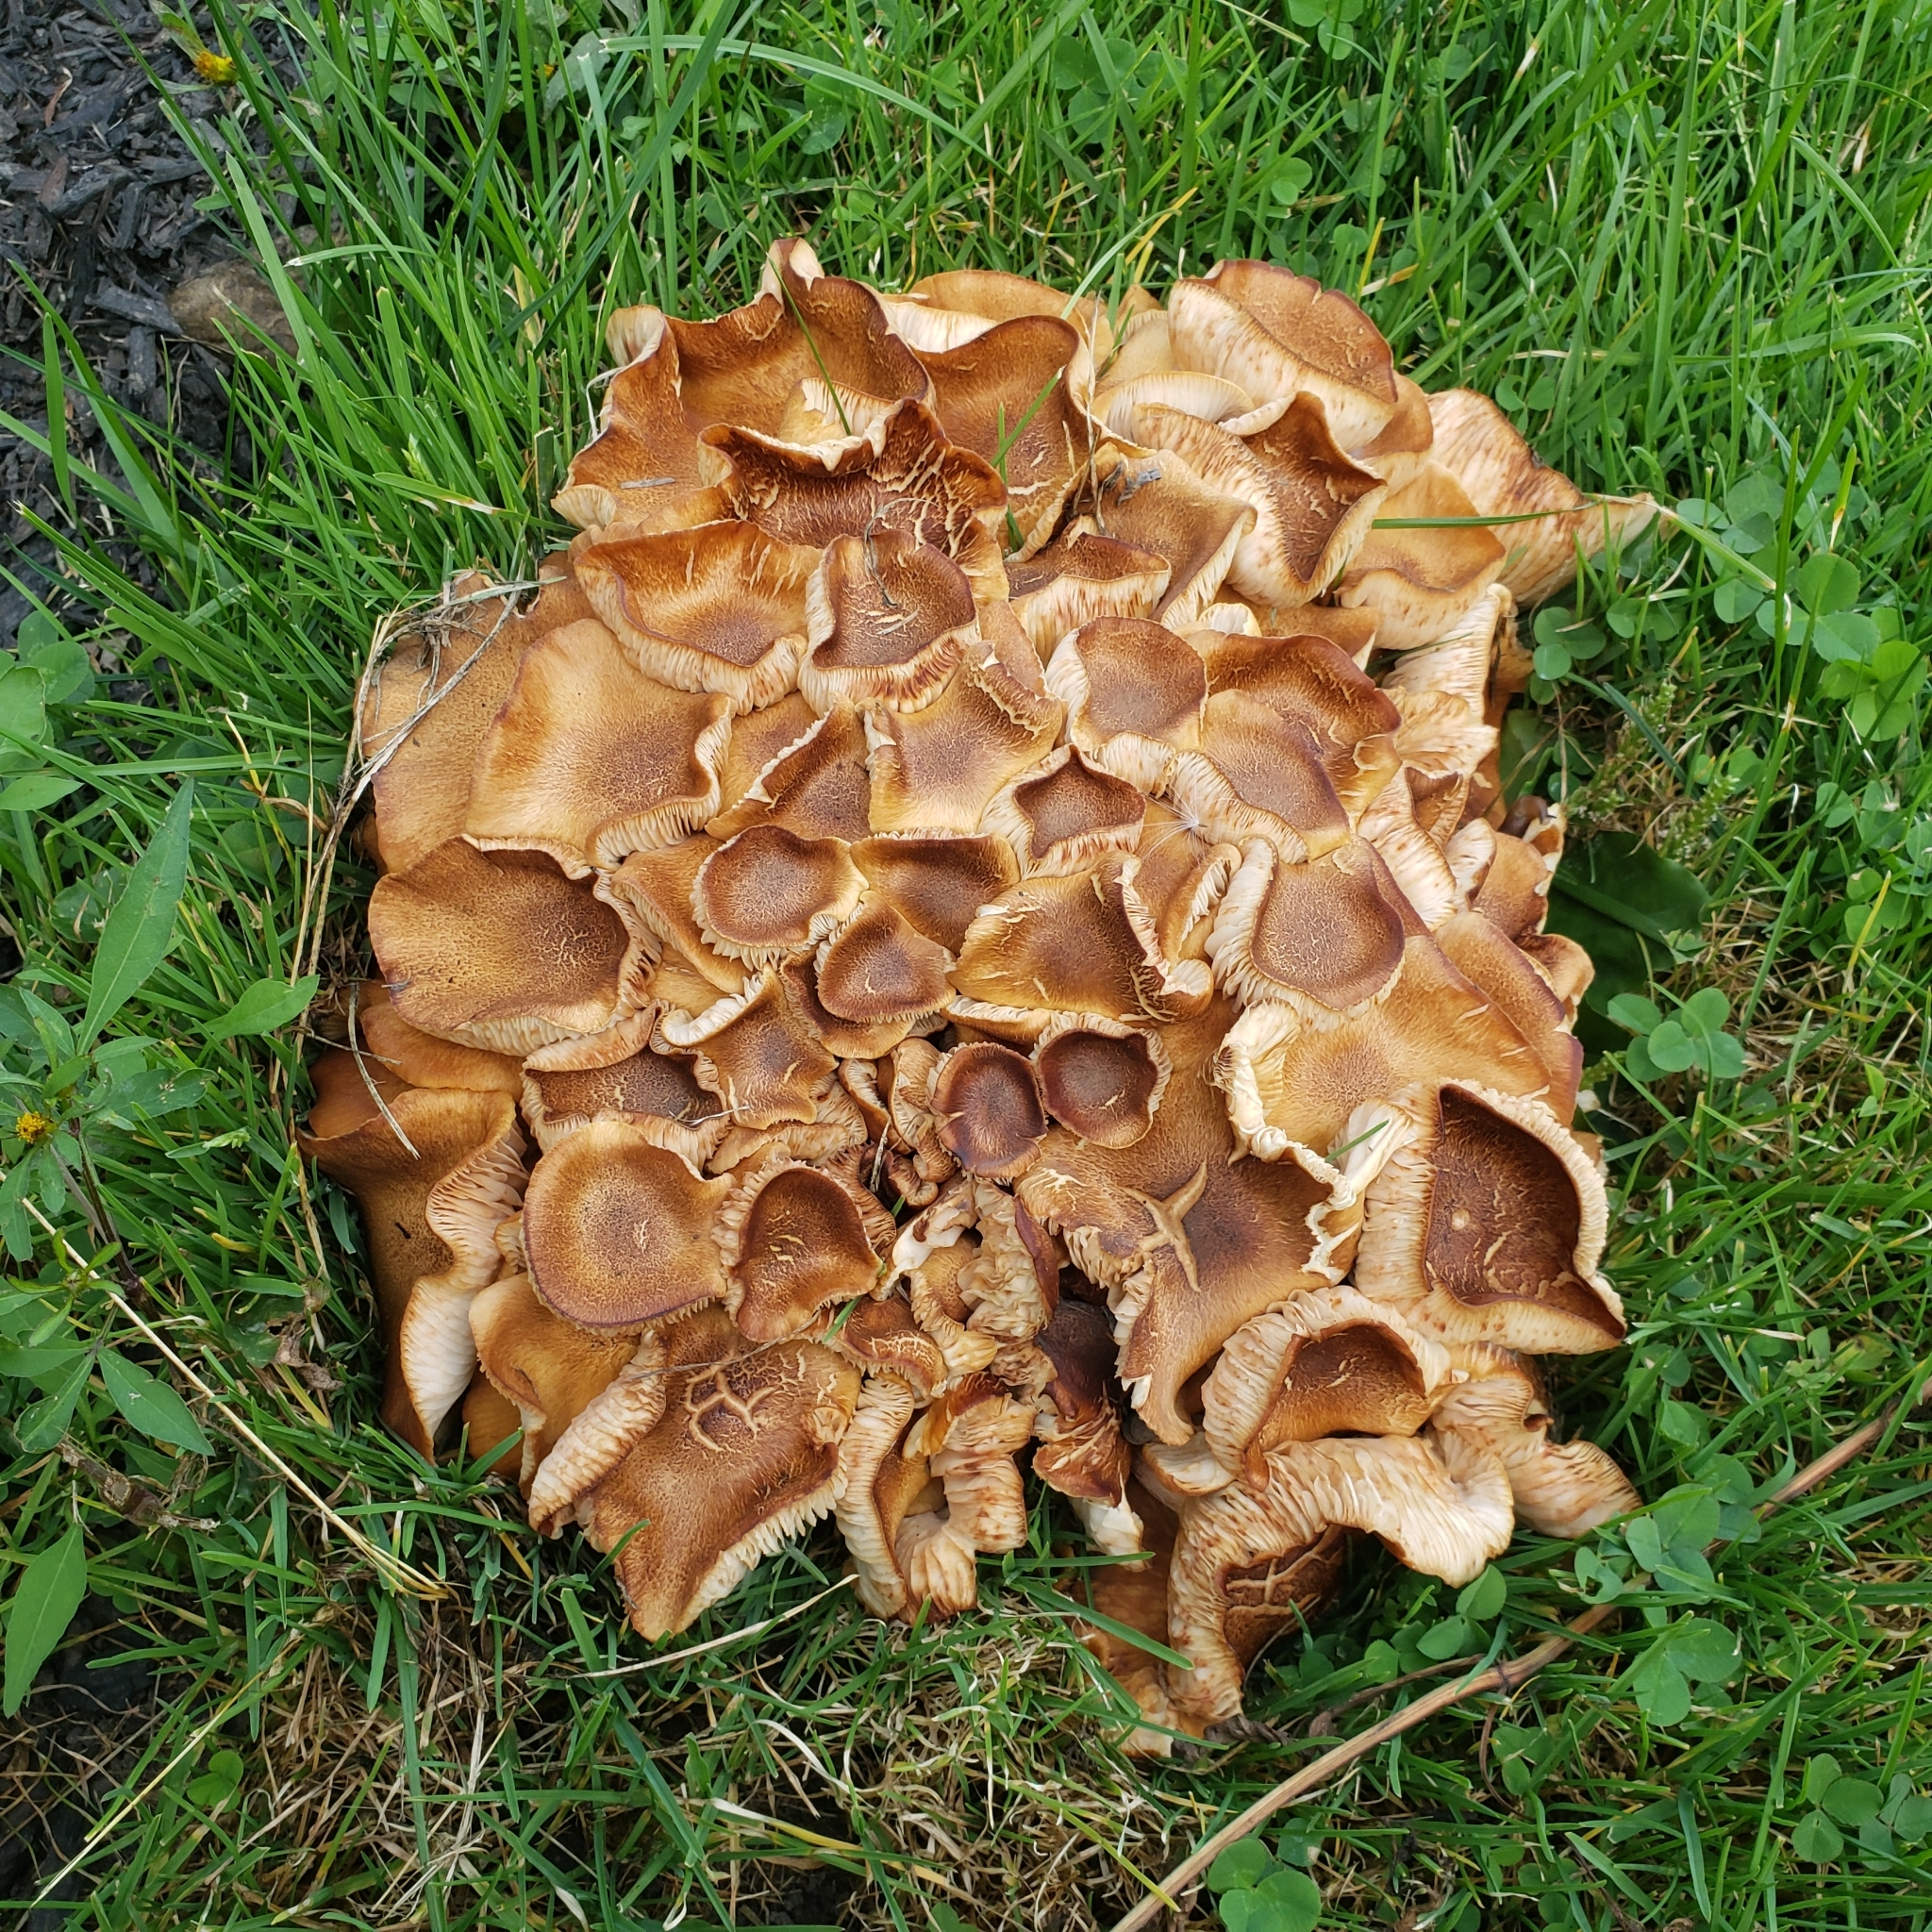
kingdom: Fungi
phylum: Basidiomycota
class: Agaricomycetes
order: Agaricales
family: Physalacriaceae
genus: Desarmillaria
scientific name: Desarmillaria caespitosa
